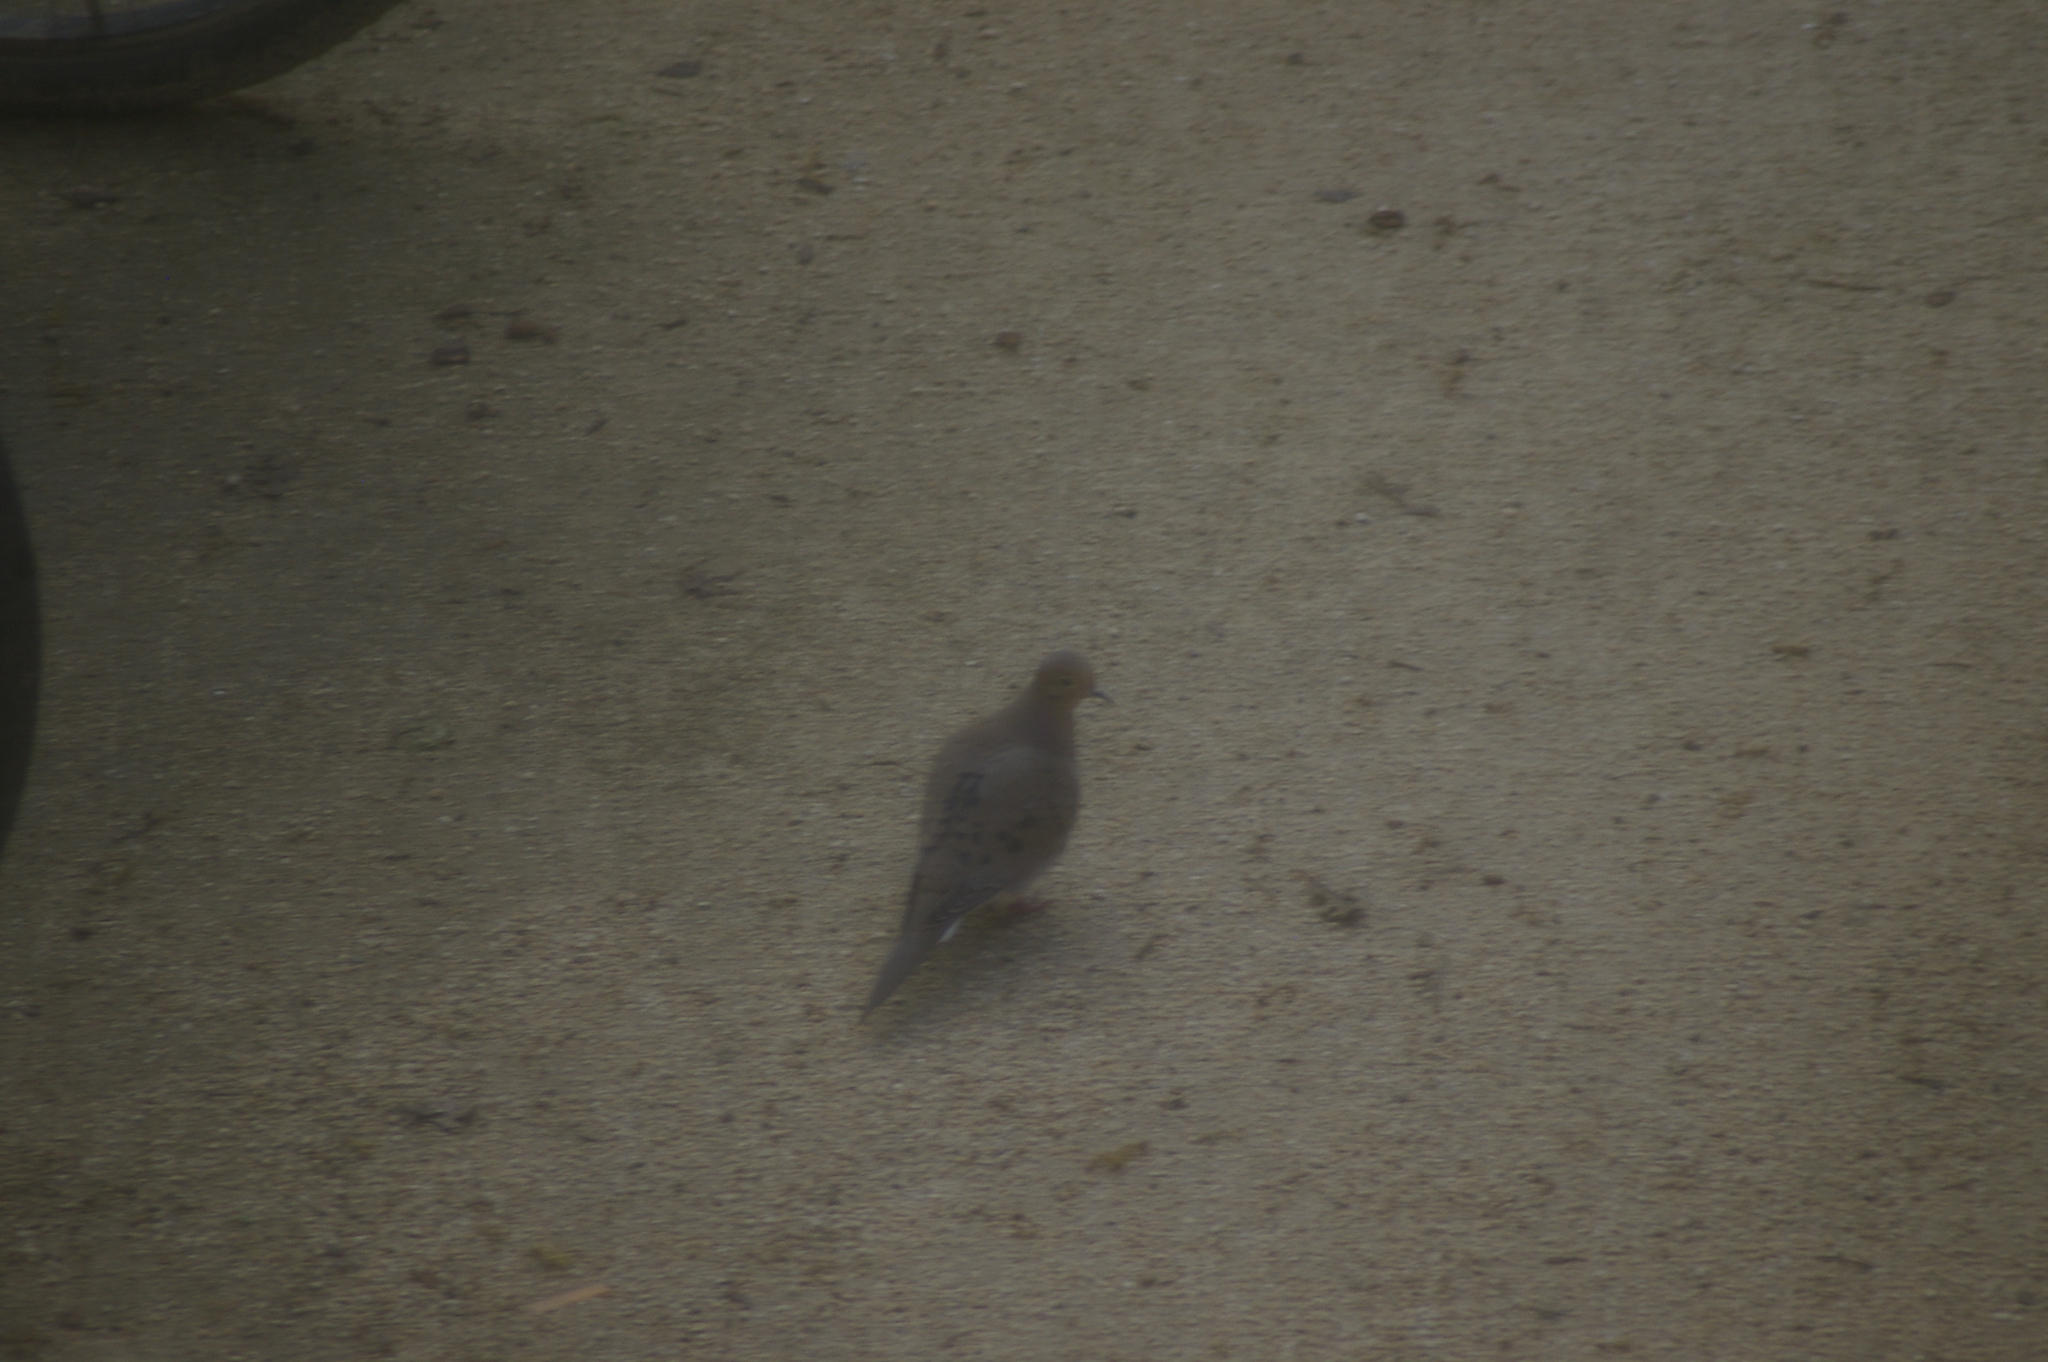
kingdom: Animalia
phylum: Chordata
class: Aves
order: Columbiformes
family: Columbidae
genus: Zenaida
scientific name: Zenaida macroura
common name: Mourning dove
